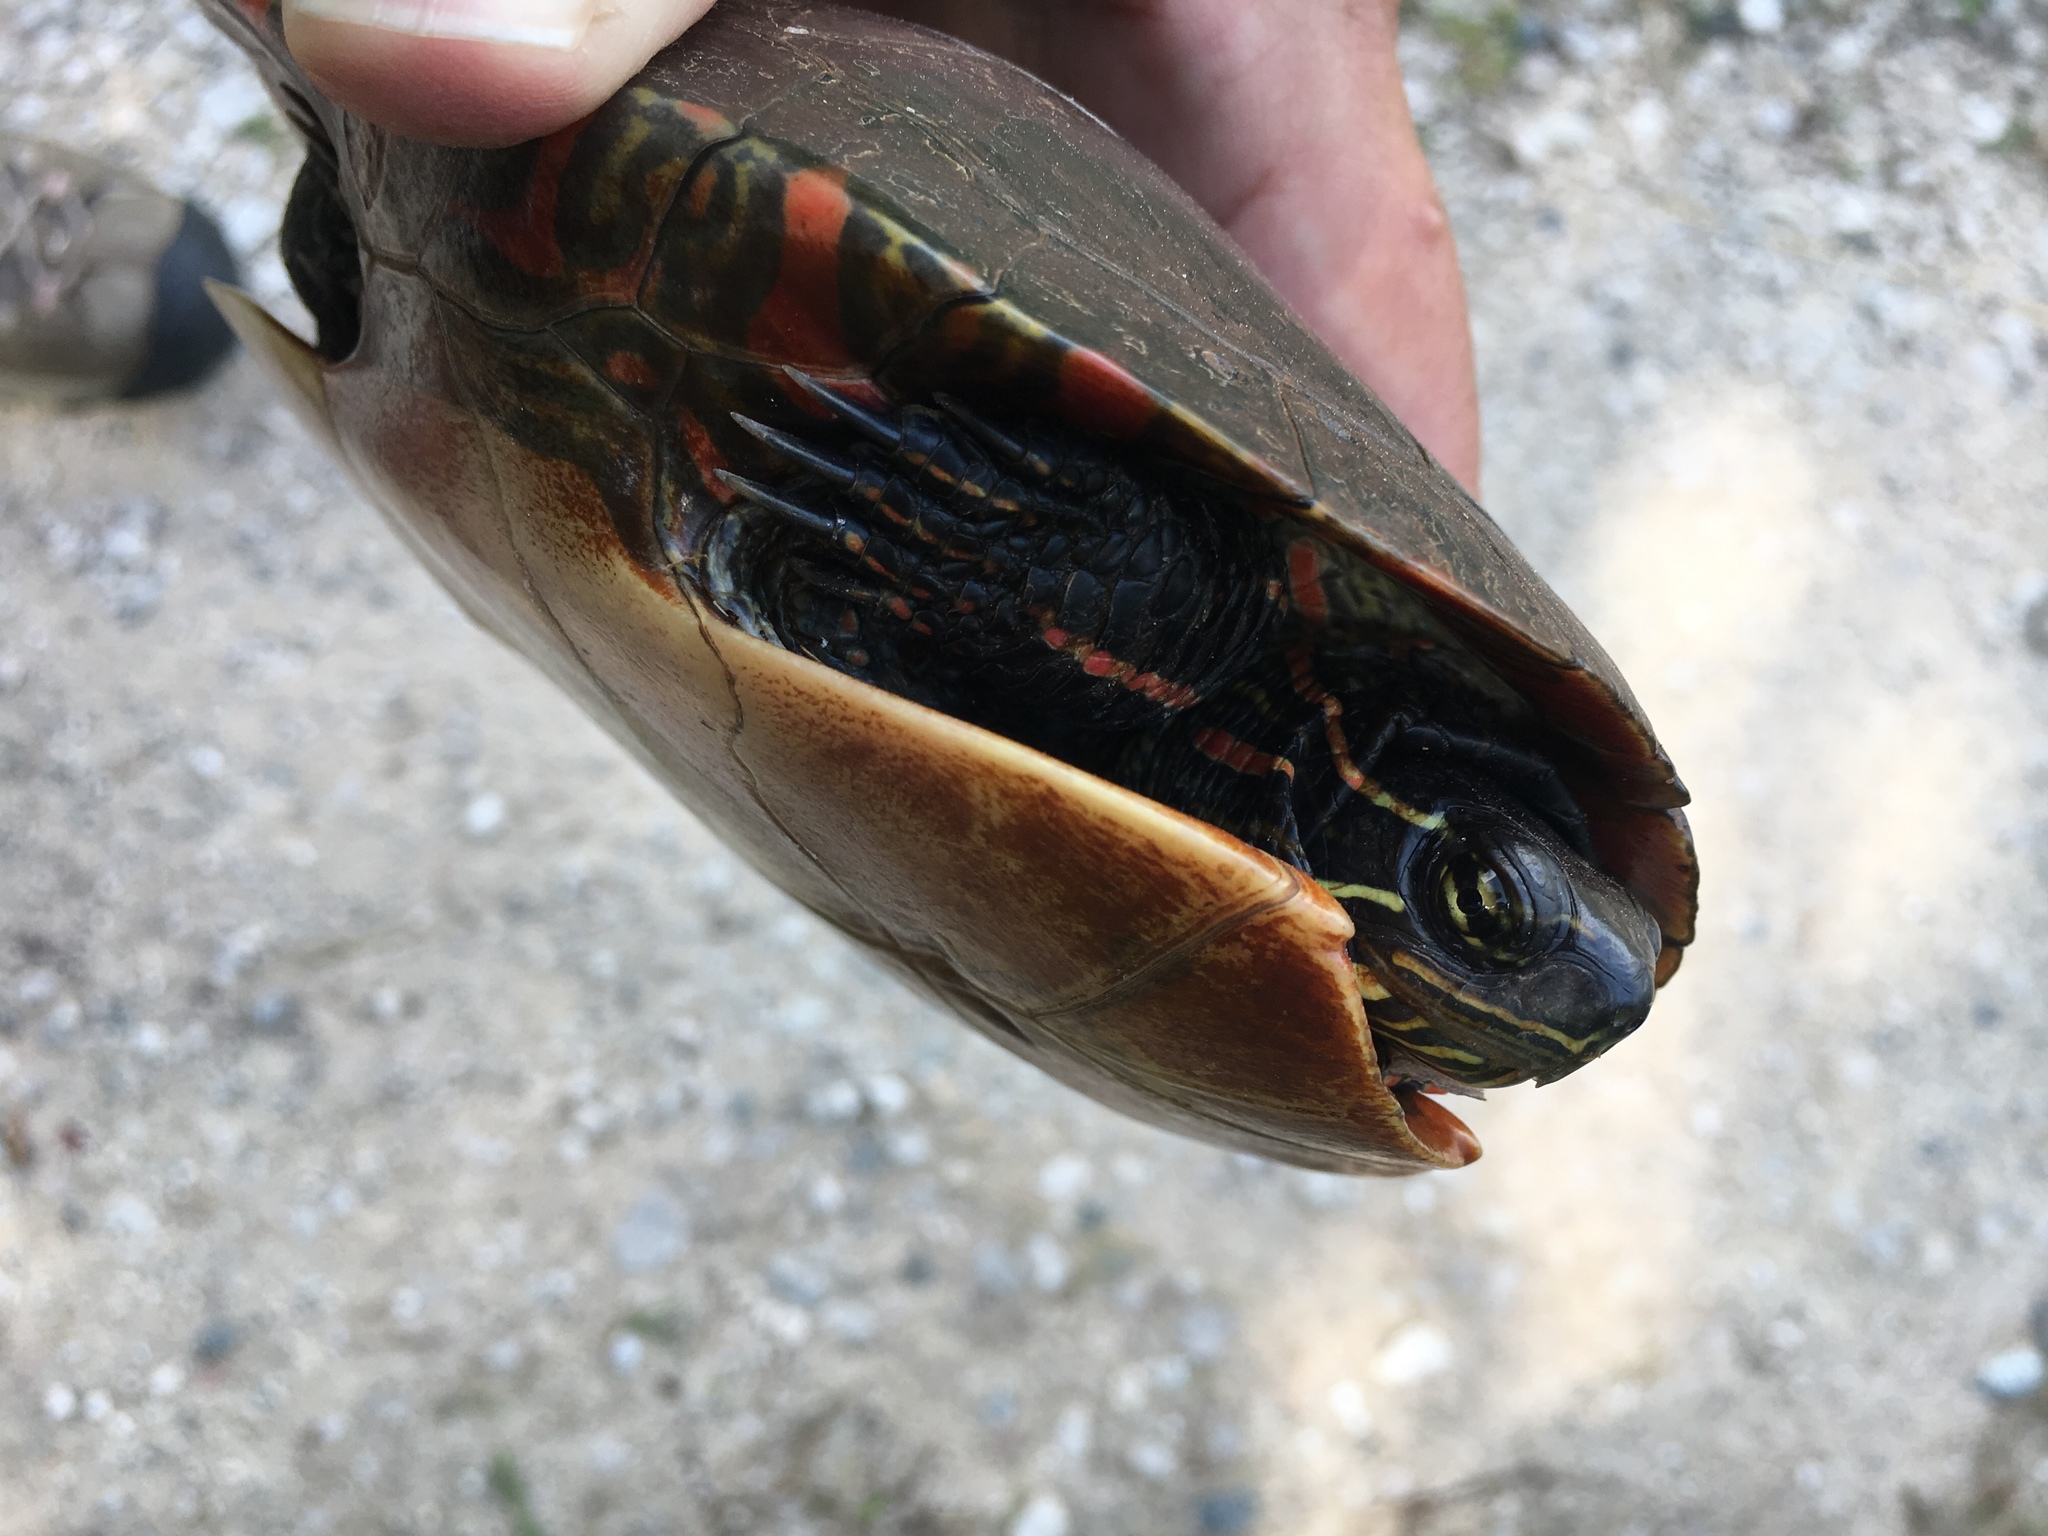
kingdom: Animalia
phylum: Chordata
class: Testudines
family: Emydidae
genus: Chrysemys
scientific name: Chrysemys picta
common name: Painted turtle
